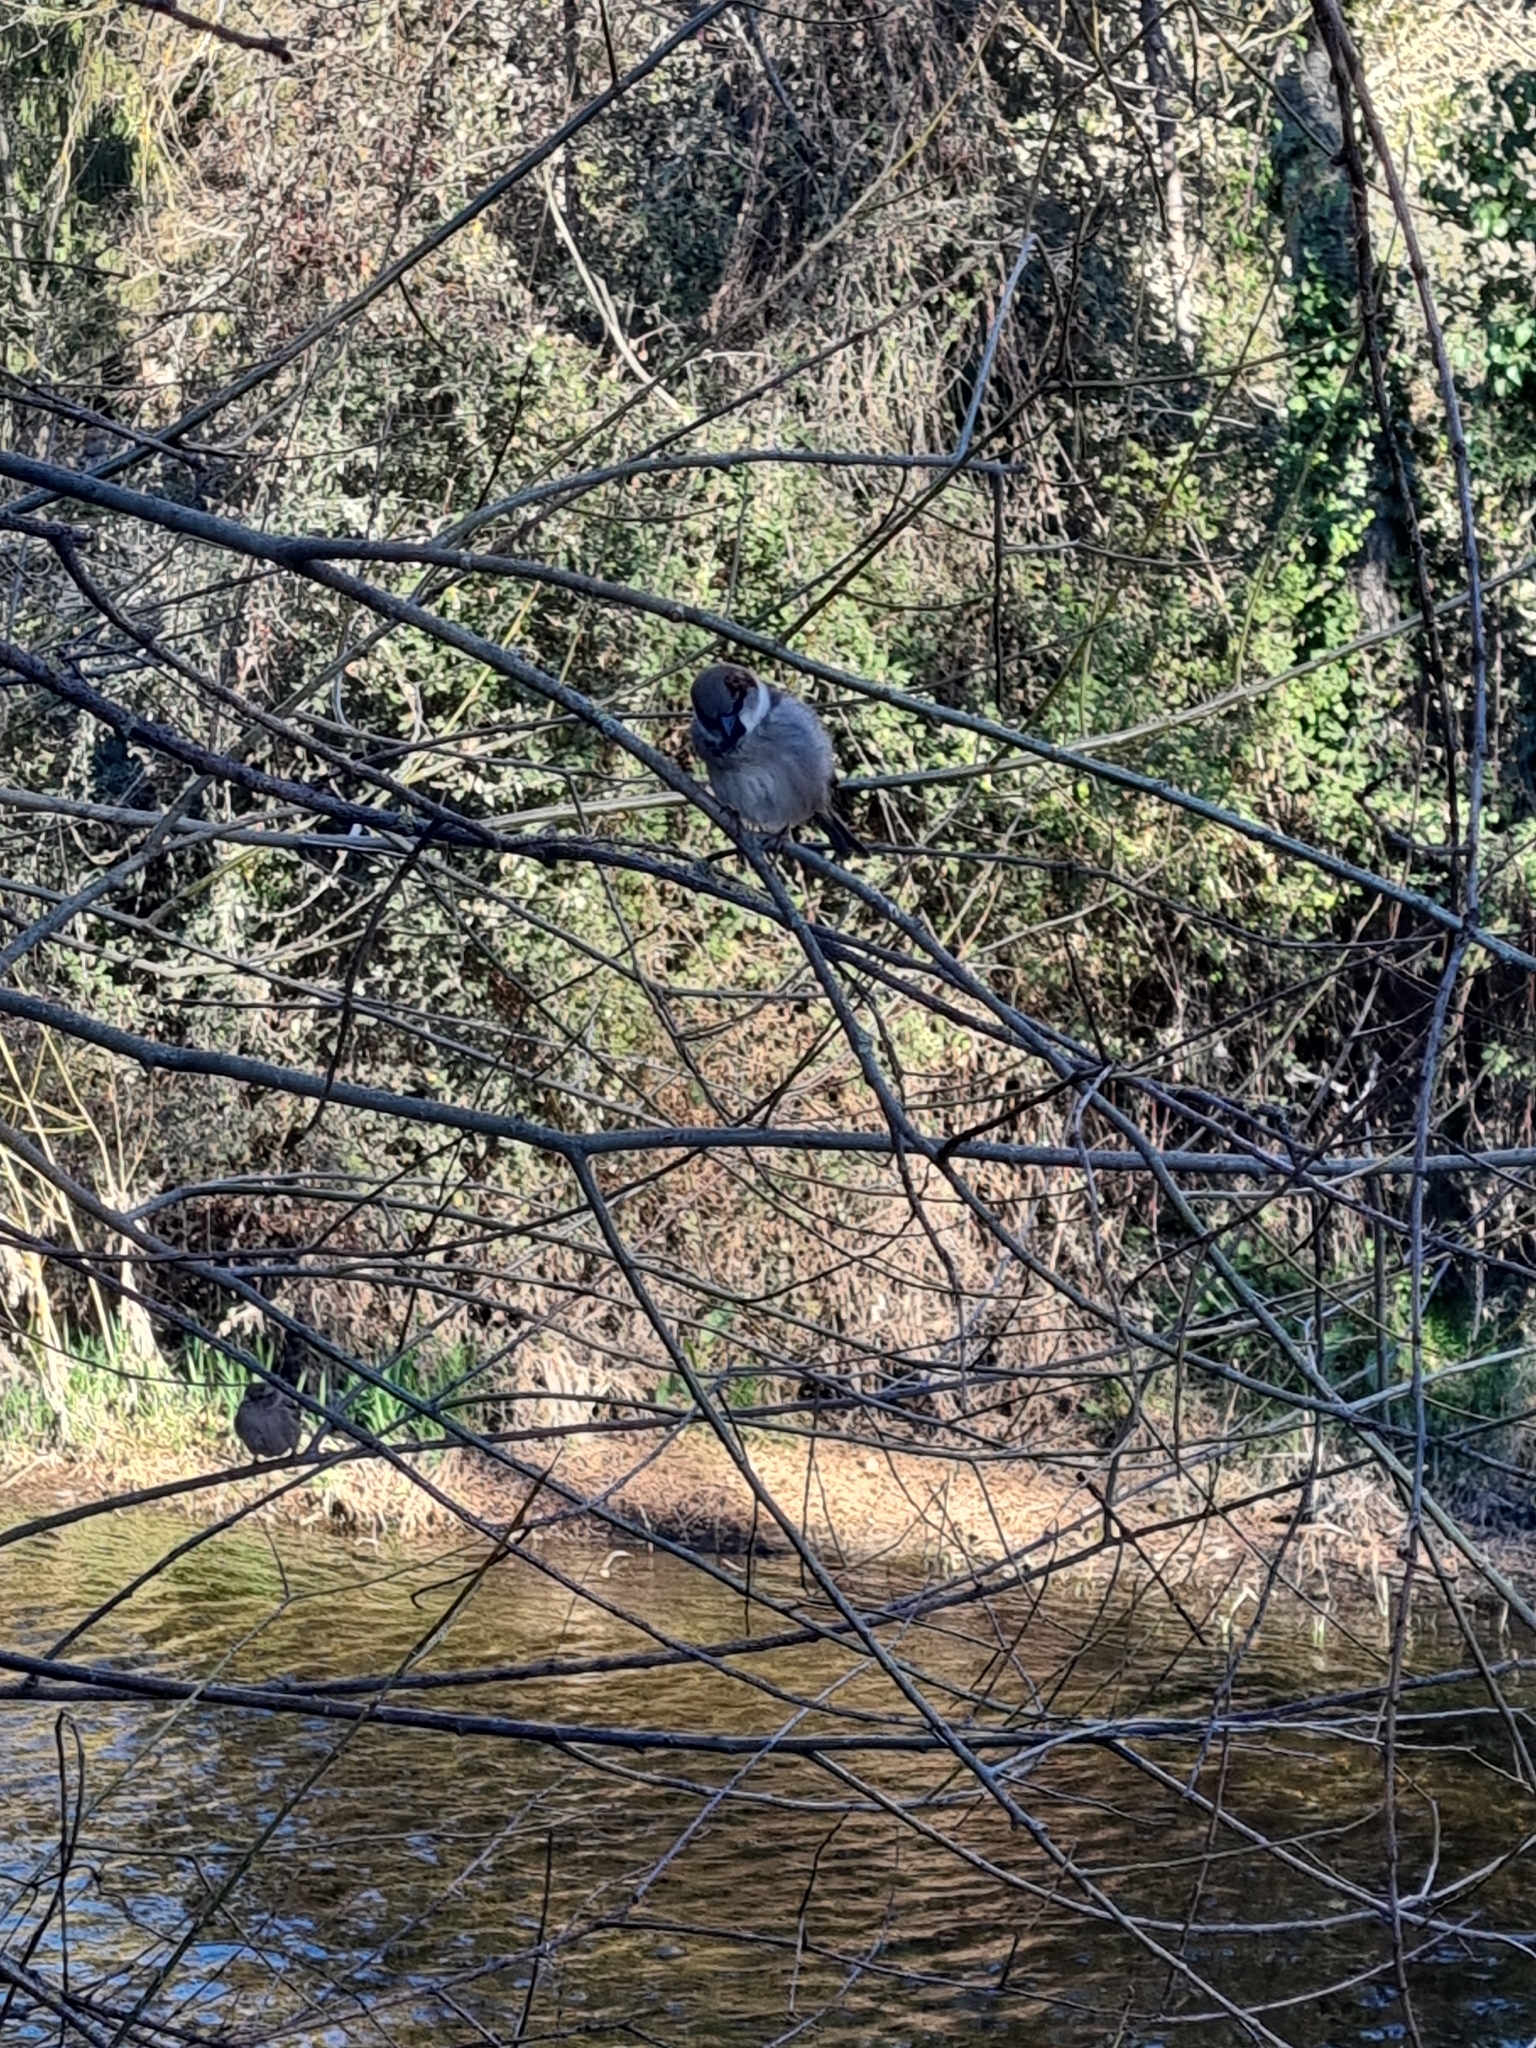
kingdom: Animalia
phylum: Chordata
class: Aves
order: Passeriformes
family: Passeridae
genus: Passer
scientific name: Passer domesticus
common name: House sparrow
